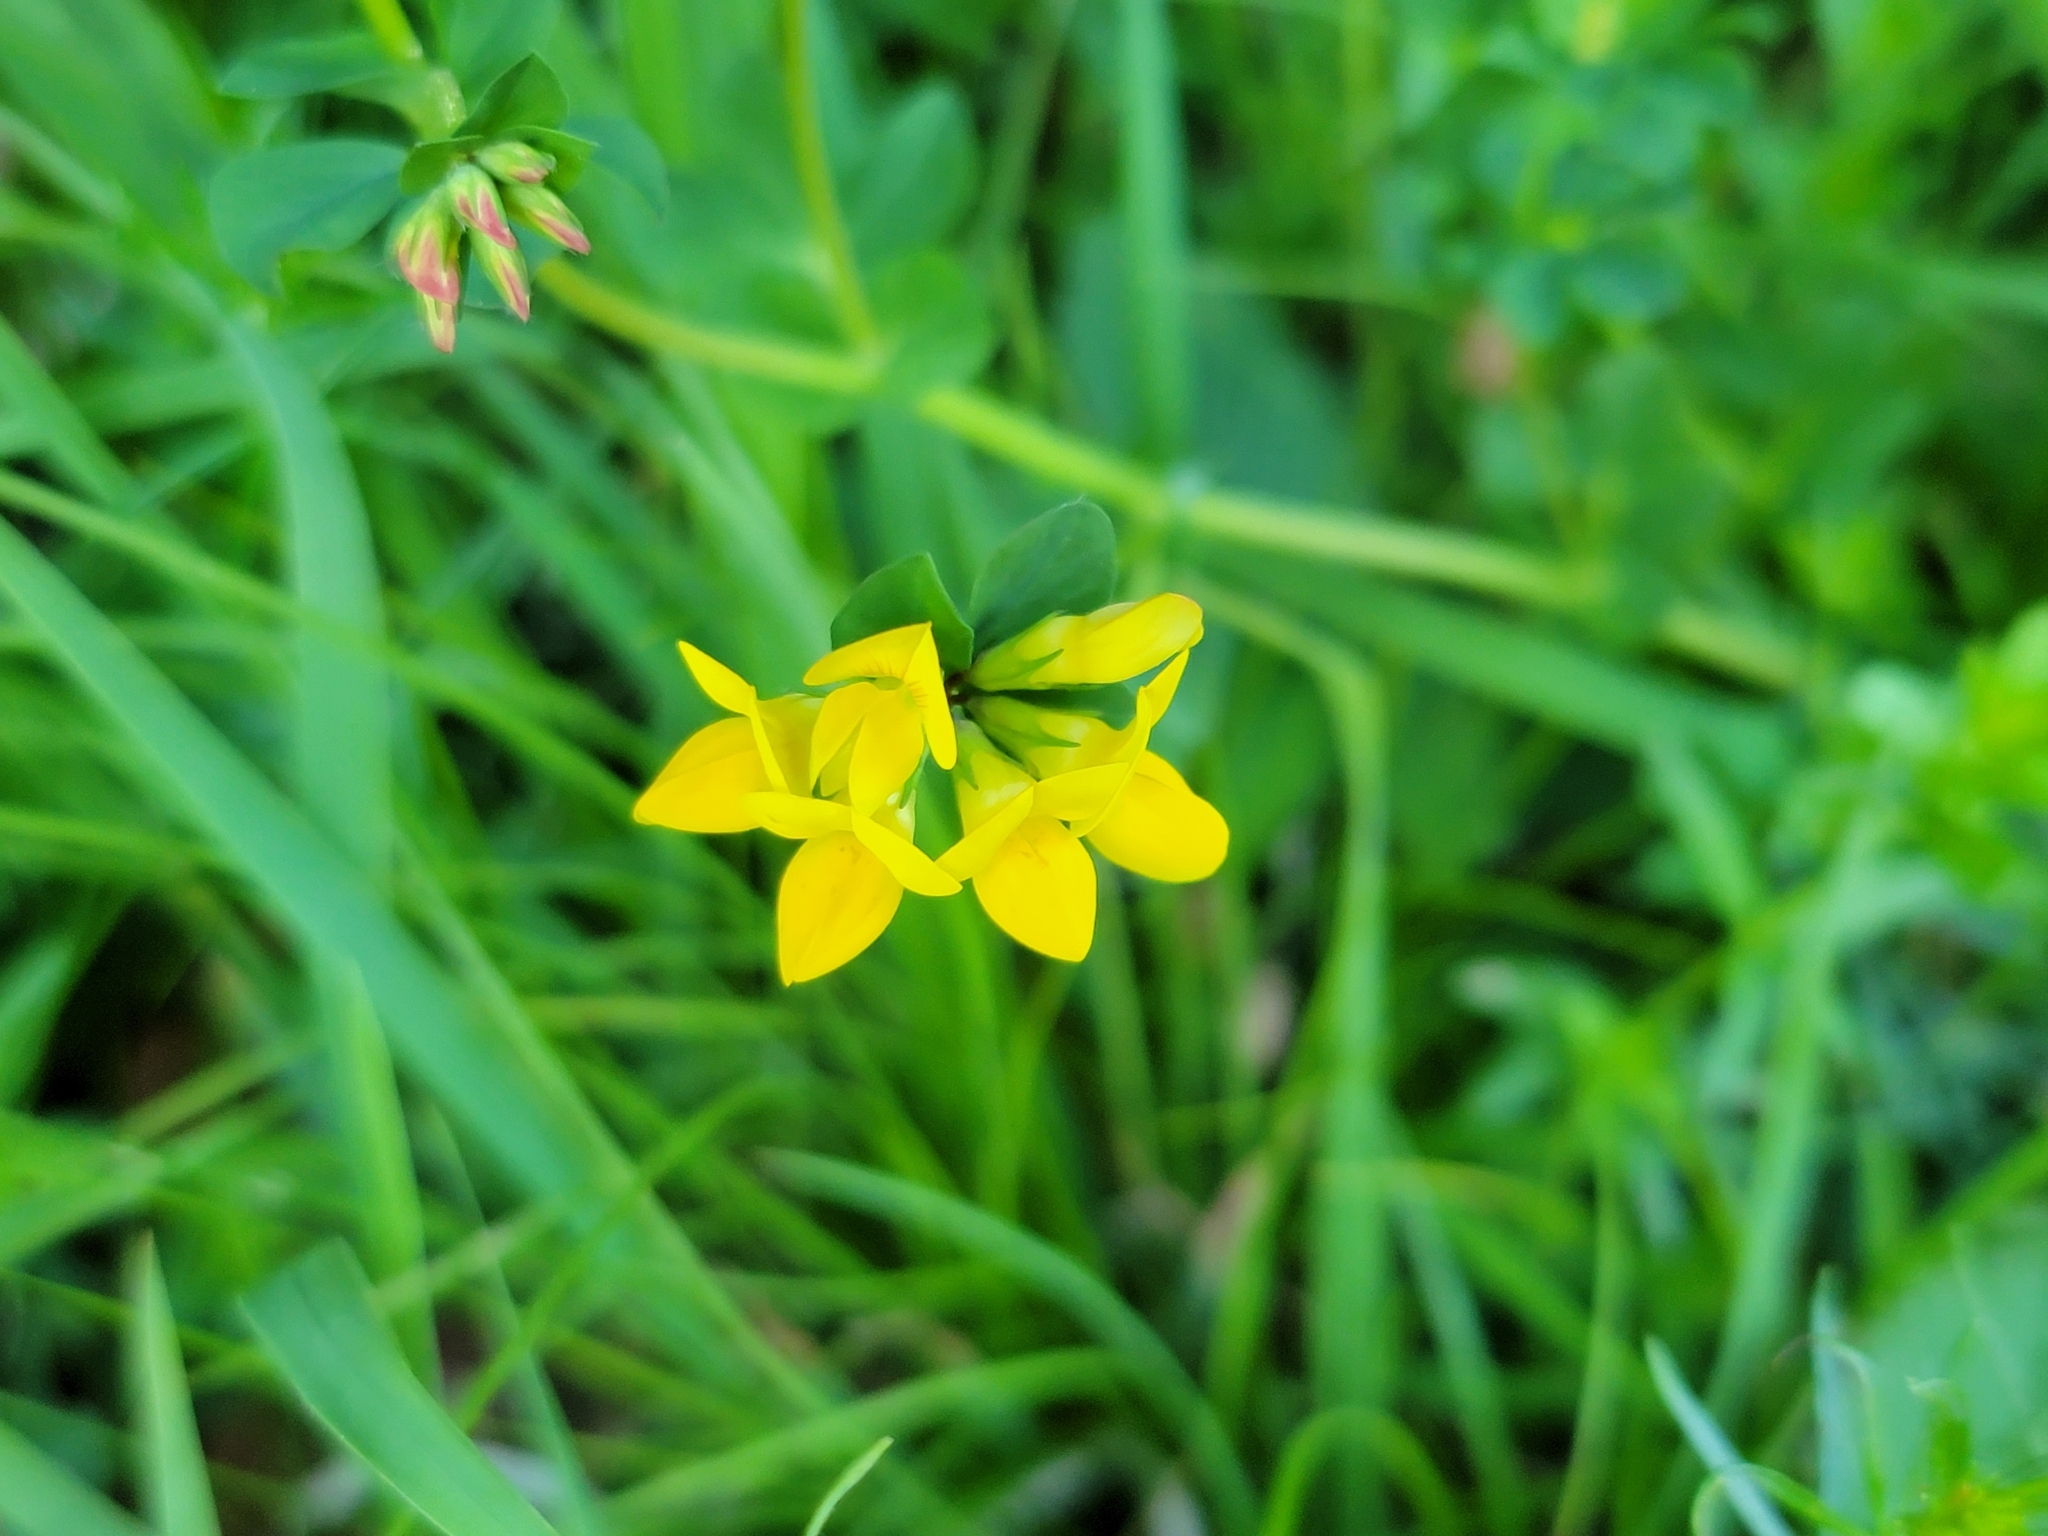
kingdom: Plantae
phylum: Tracheophyta
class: Magnoliopsida
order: Fabales
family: Fabaceae
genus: Lotus
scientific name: Lotus corniculatus
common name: Common bird's-foot-trefoil
